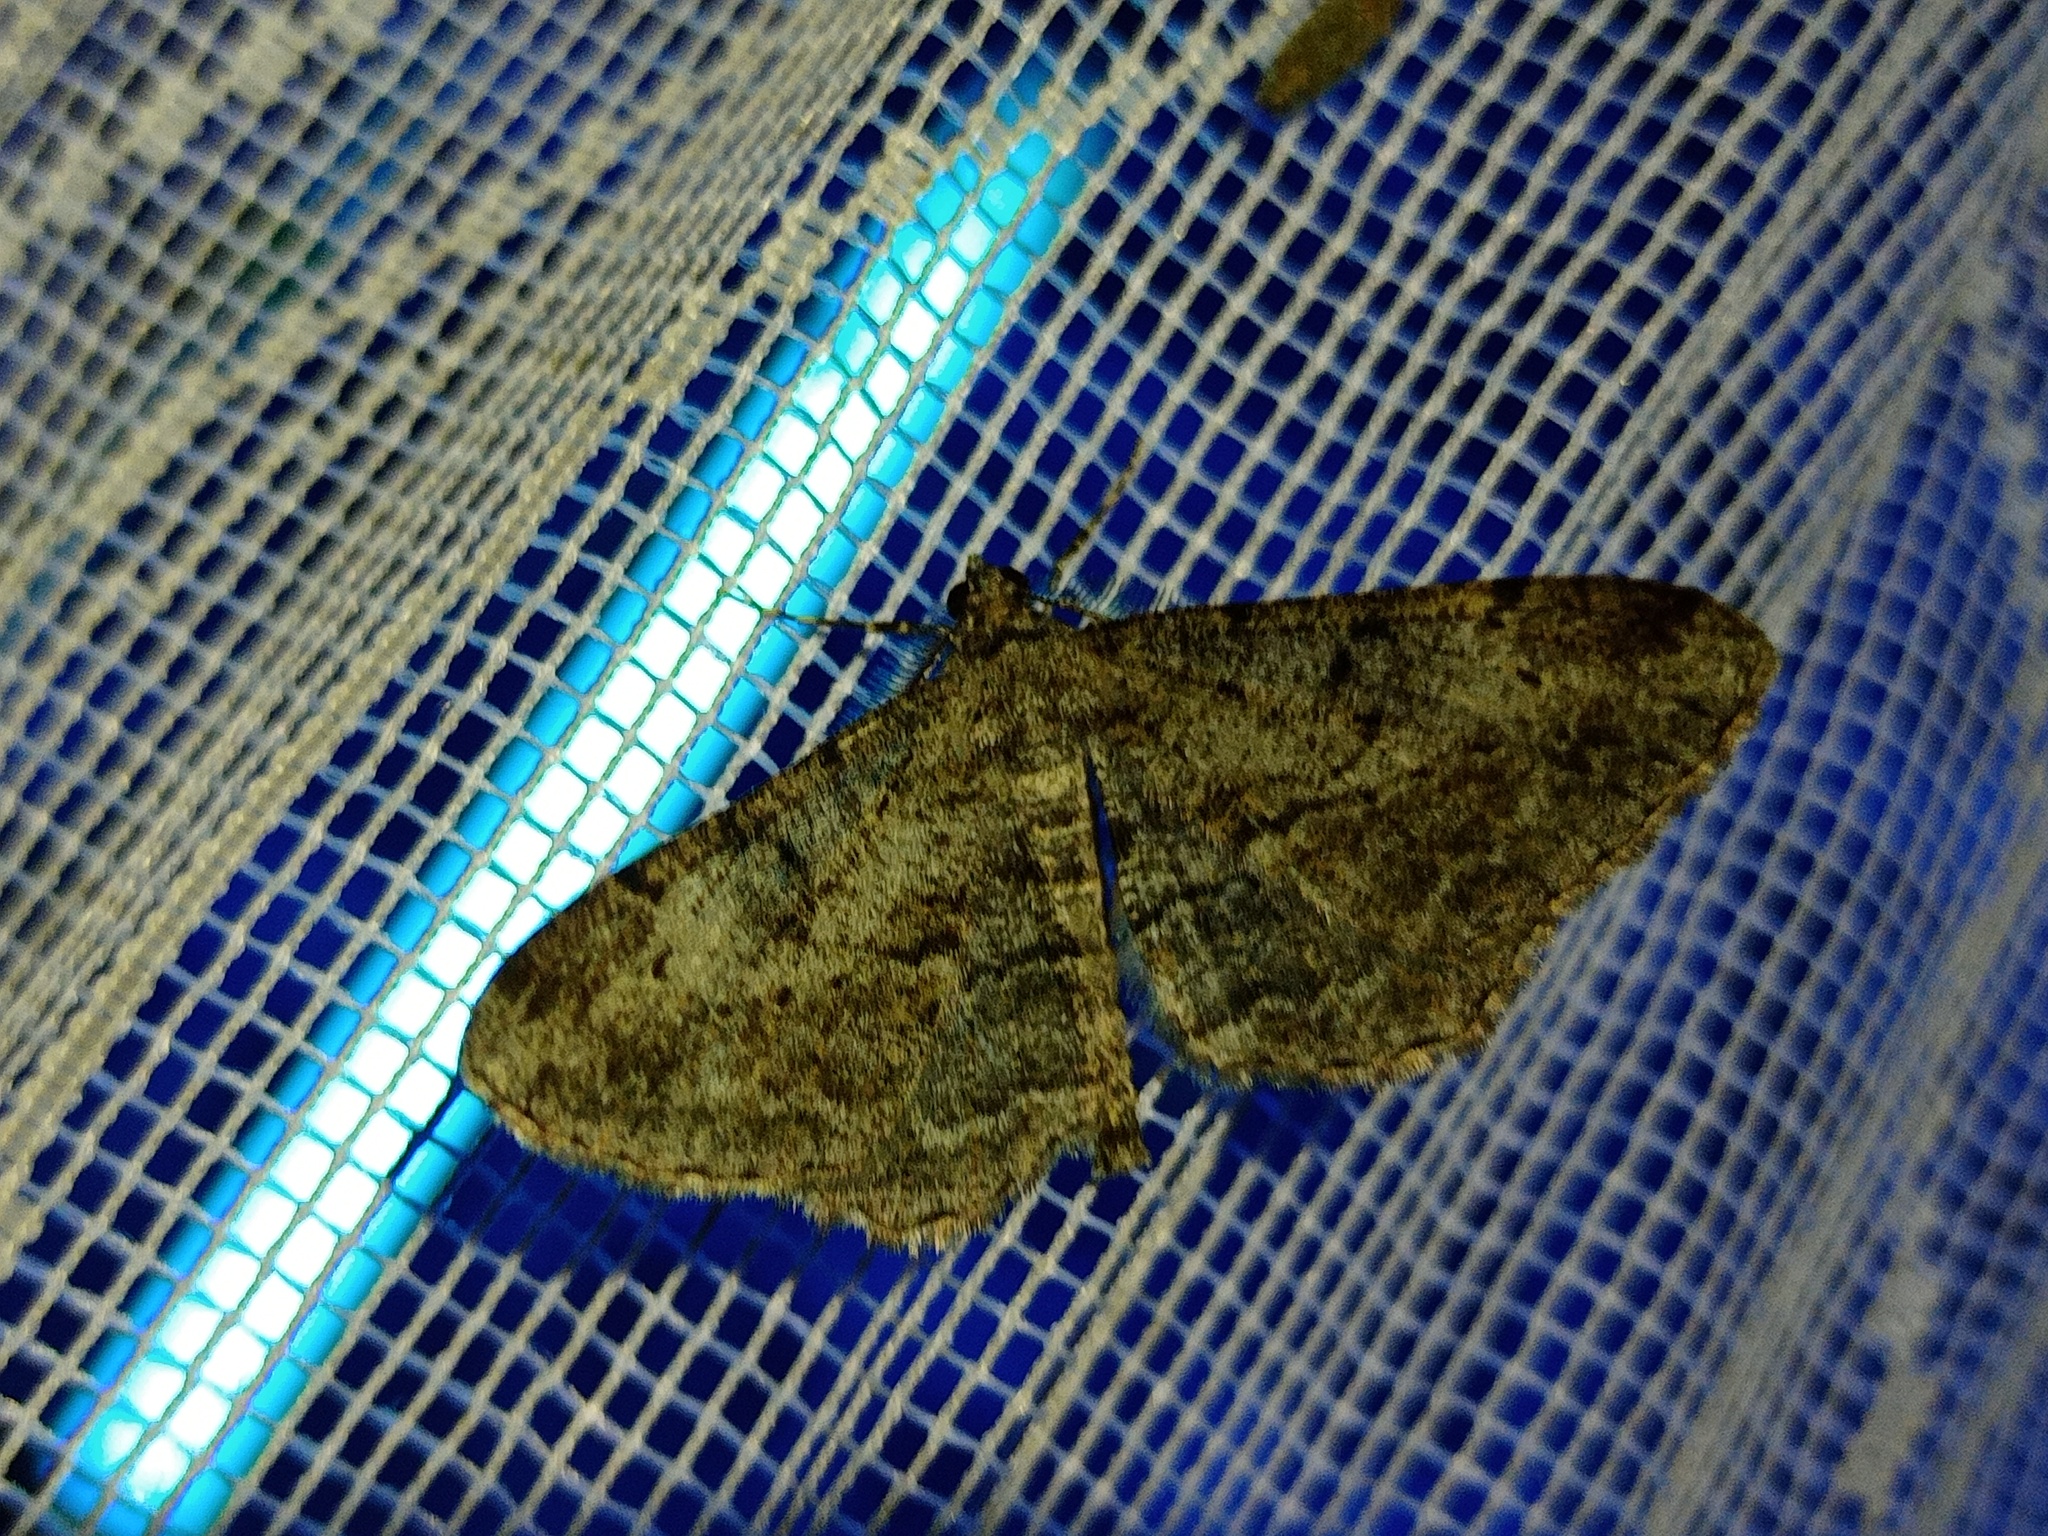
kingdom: Animalia
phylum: Arthropoda
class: Insecta
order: Lepidoptera
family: Geometridae
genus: Peribatodes
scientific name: Peribatodes rhomboidaria
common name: Willow beauty
